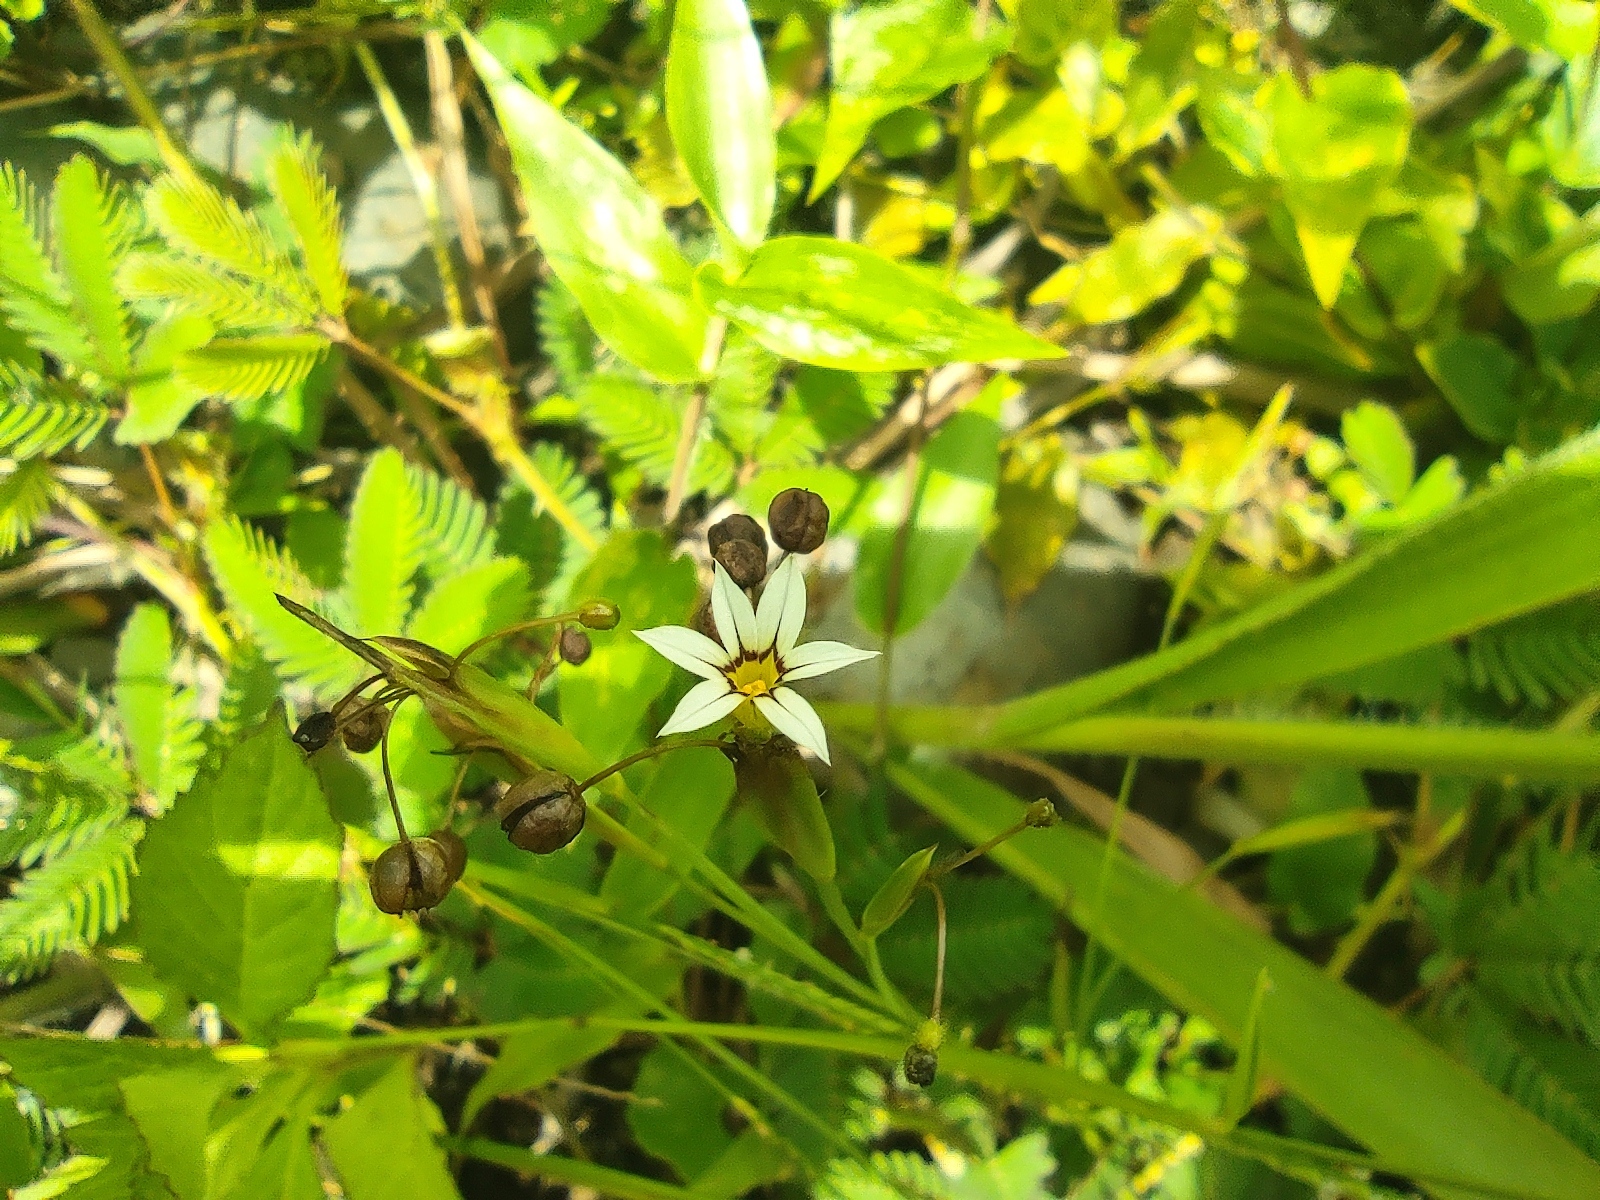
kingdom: Plantae
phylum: Tracheophyta
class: Liliopsida
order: Asparagales
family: Iridaceae
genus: Sisyrinchium
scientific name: Sisyrinchium micranthum
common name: Bermuda pigroot
